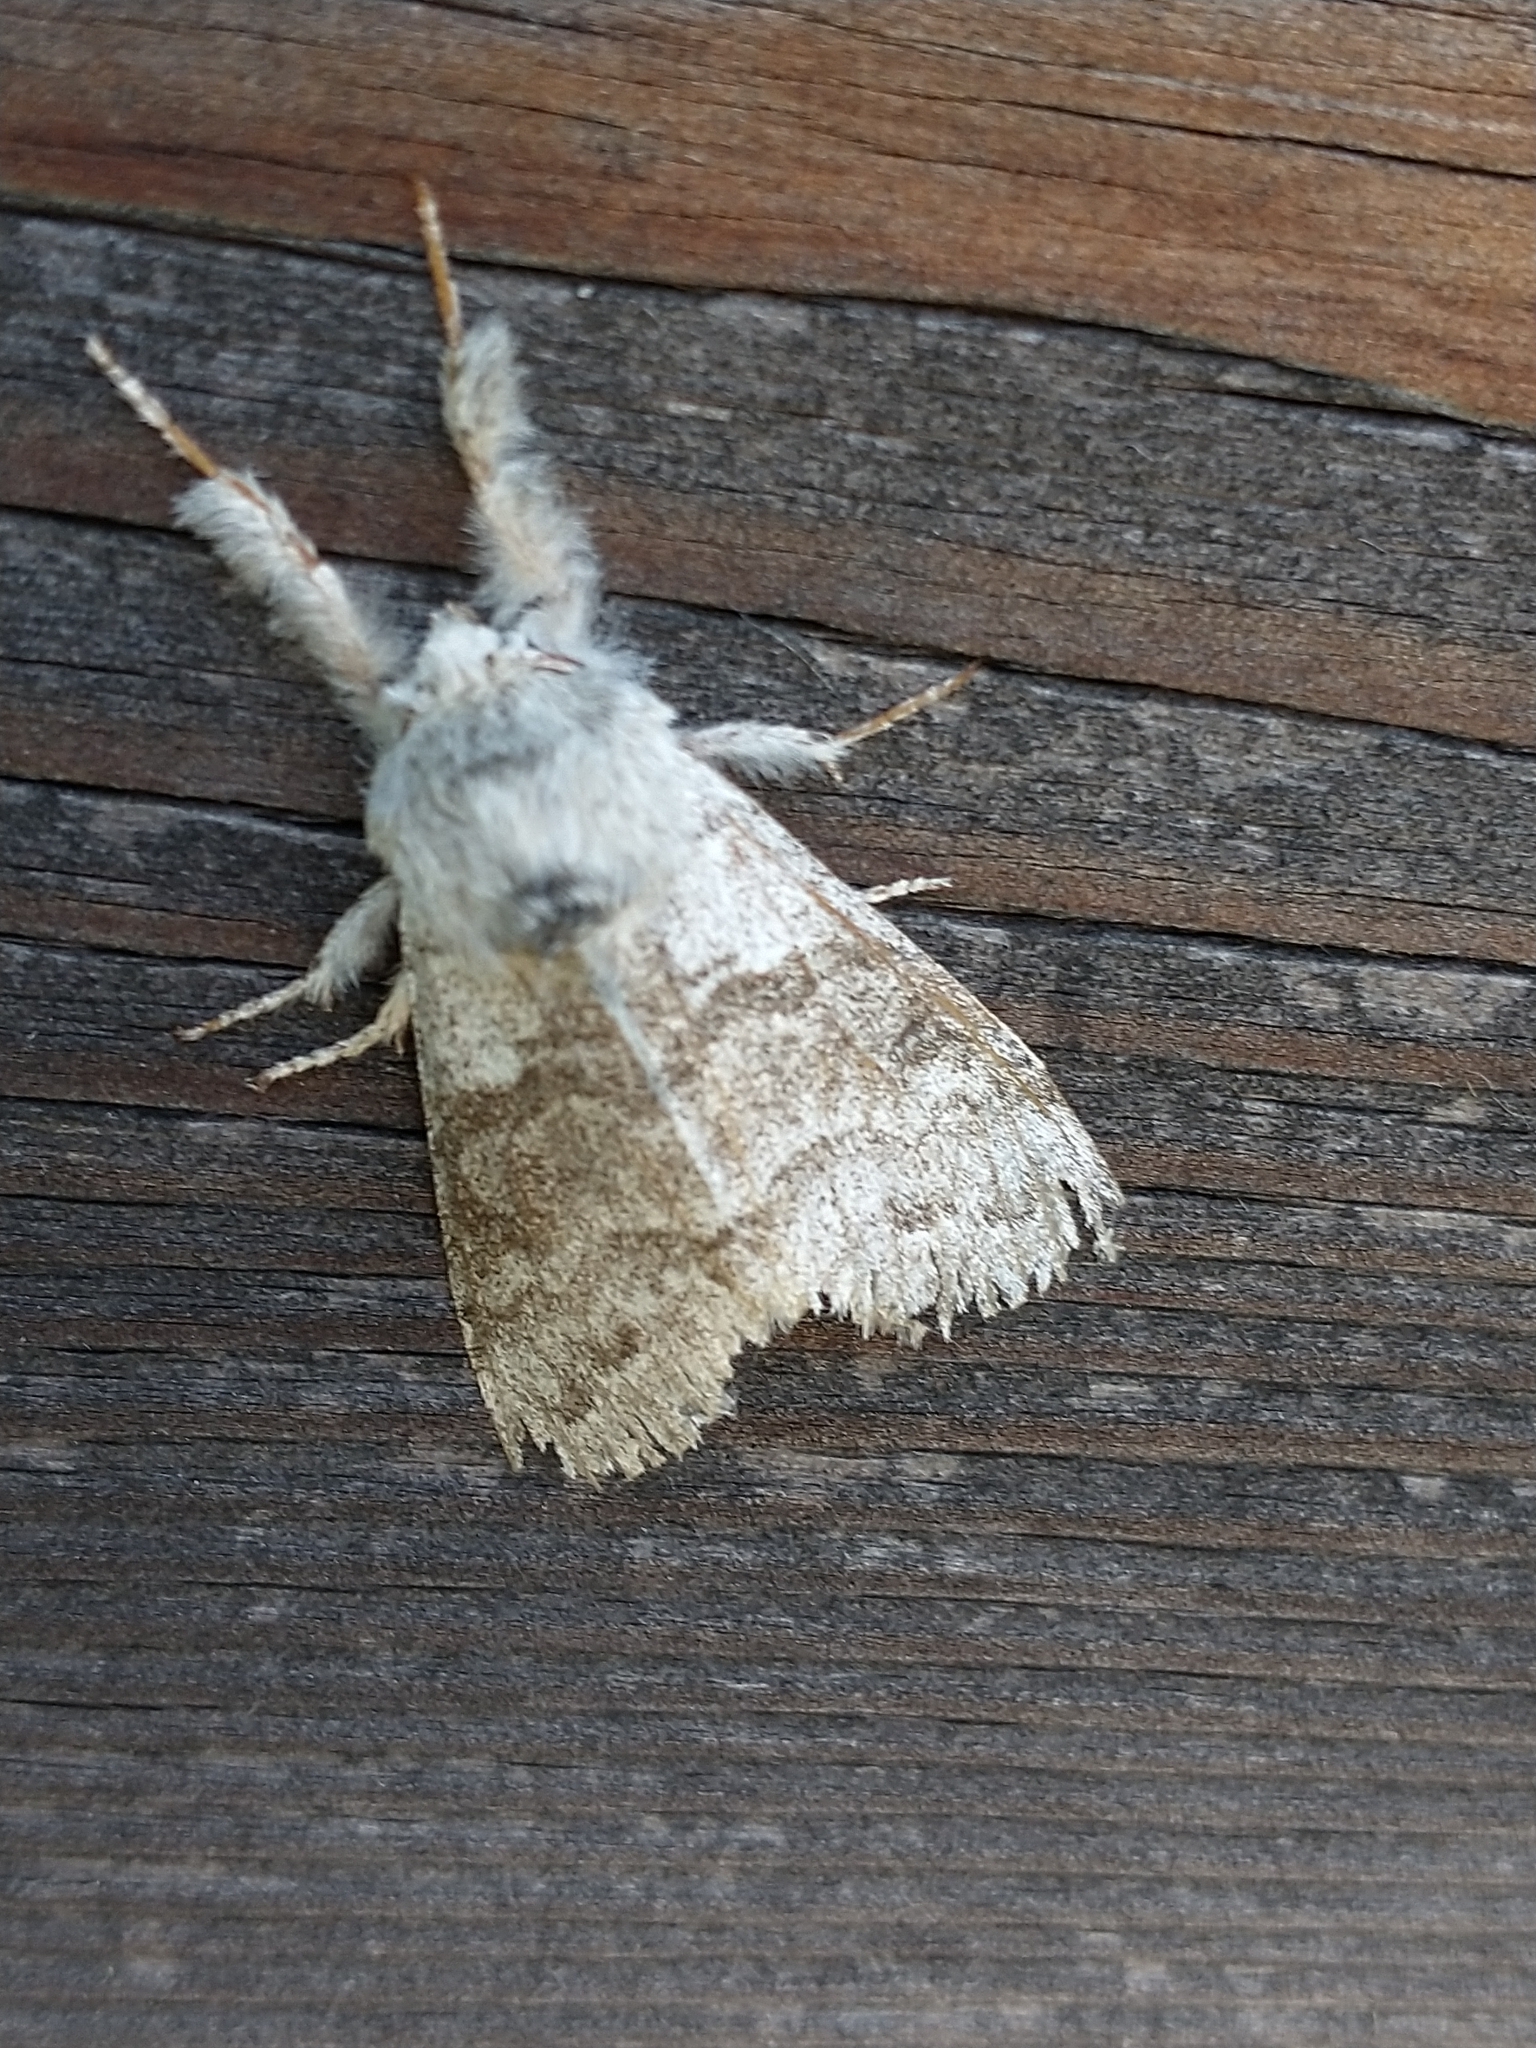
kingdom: Animalia
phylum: Arthropoda
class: Insecta
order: Lepidoptera
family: Erebidae
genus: Calliteara
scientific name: Calliteara pudibunda
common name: Pale tussock
